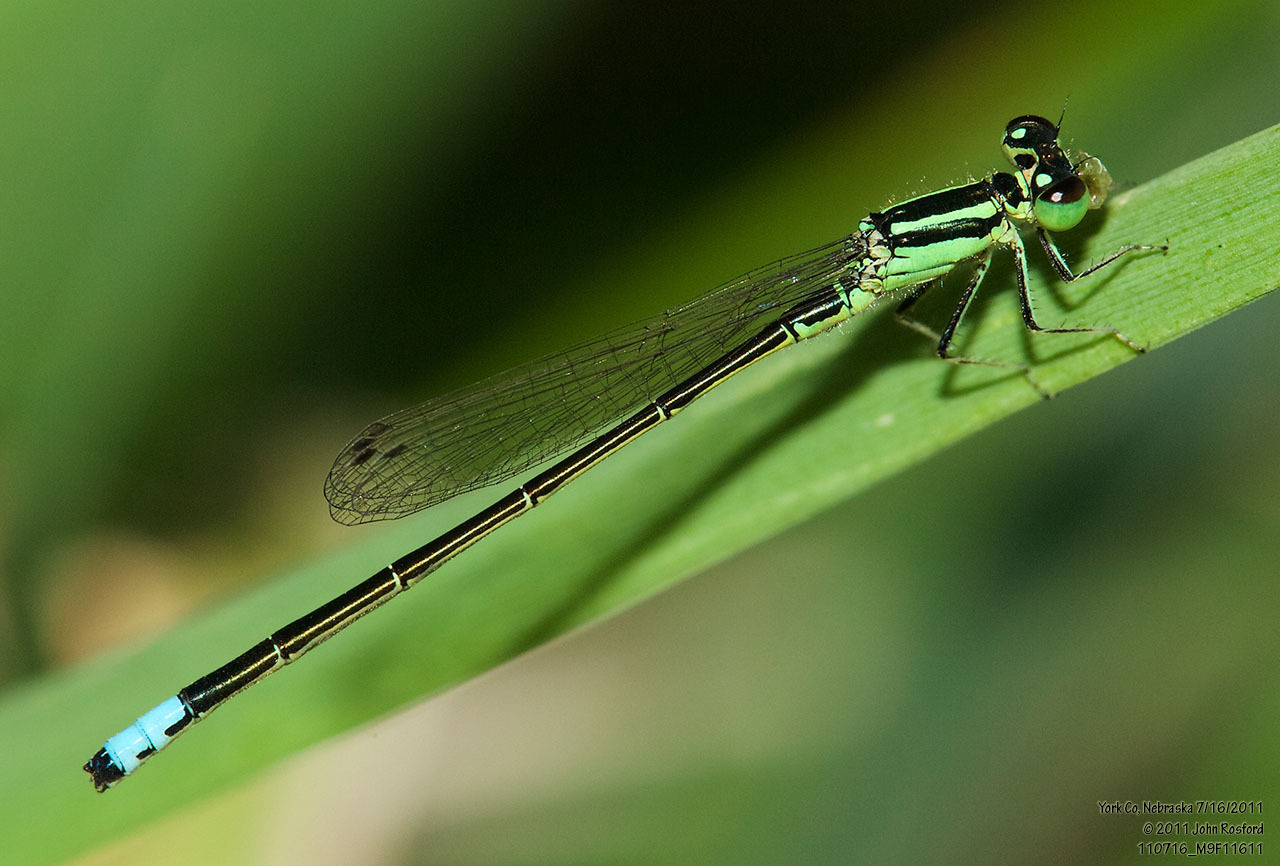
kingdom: Animalia
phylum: Arthropoda
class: Insecta
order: Odonata
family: Coenagrionidae
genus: Ischnura
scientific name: Ischnura verticalis
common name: Eastern forktail
